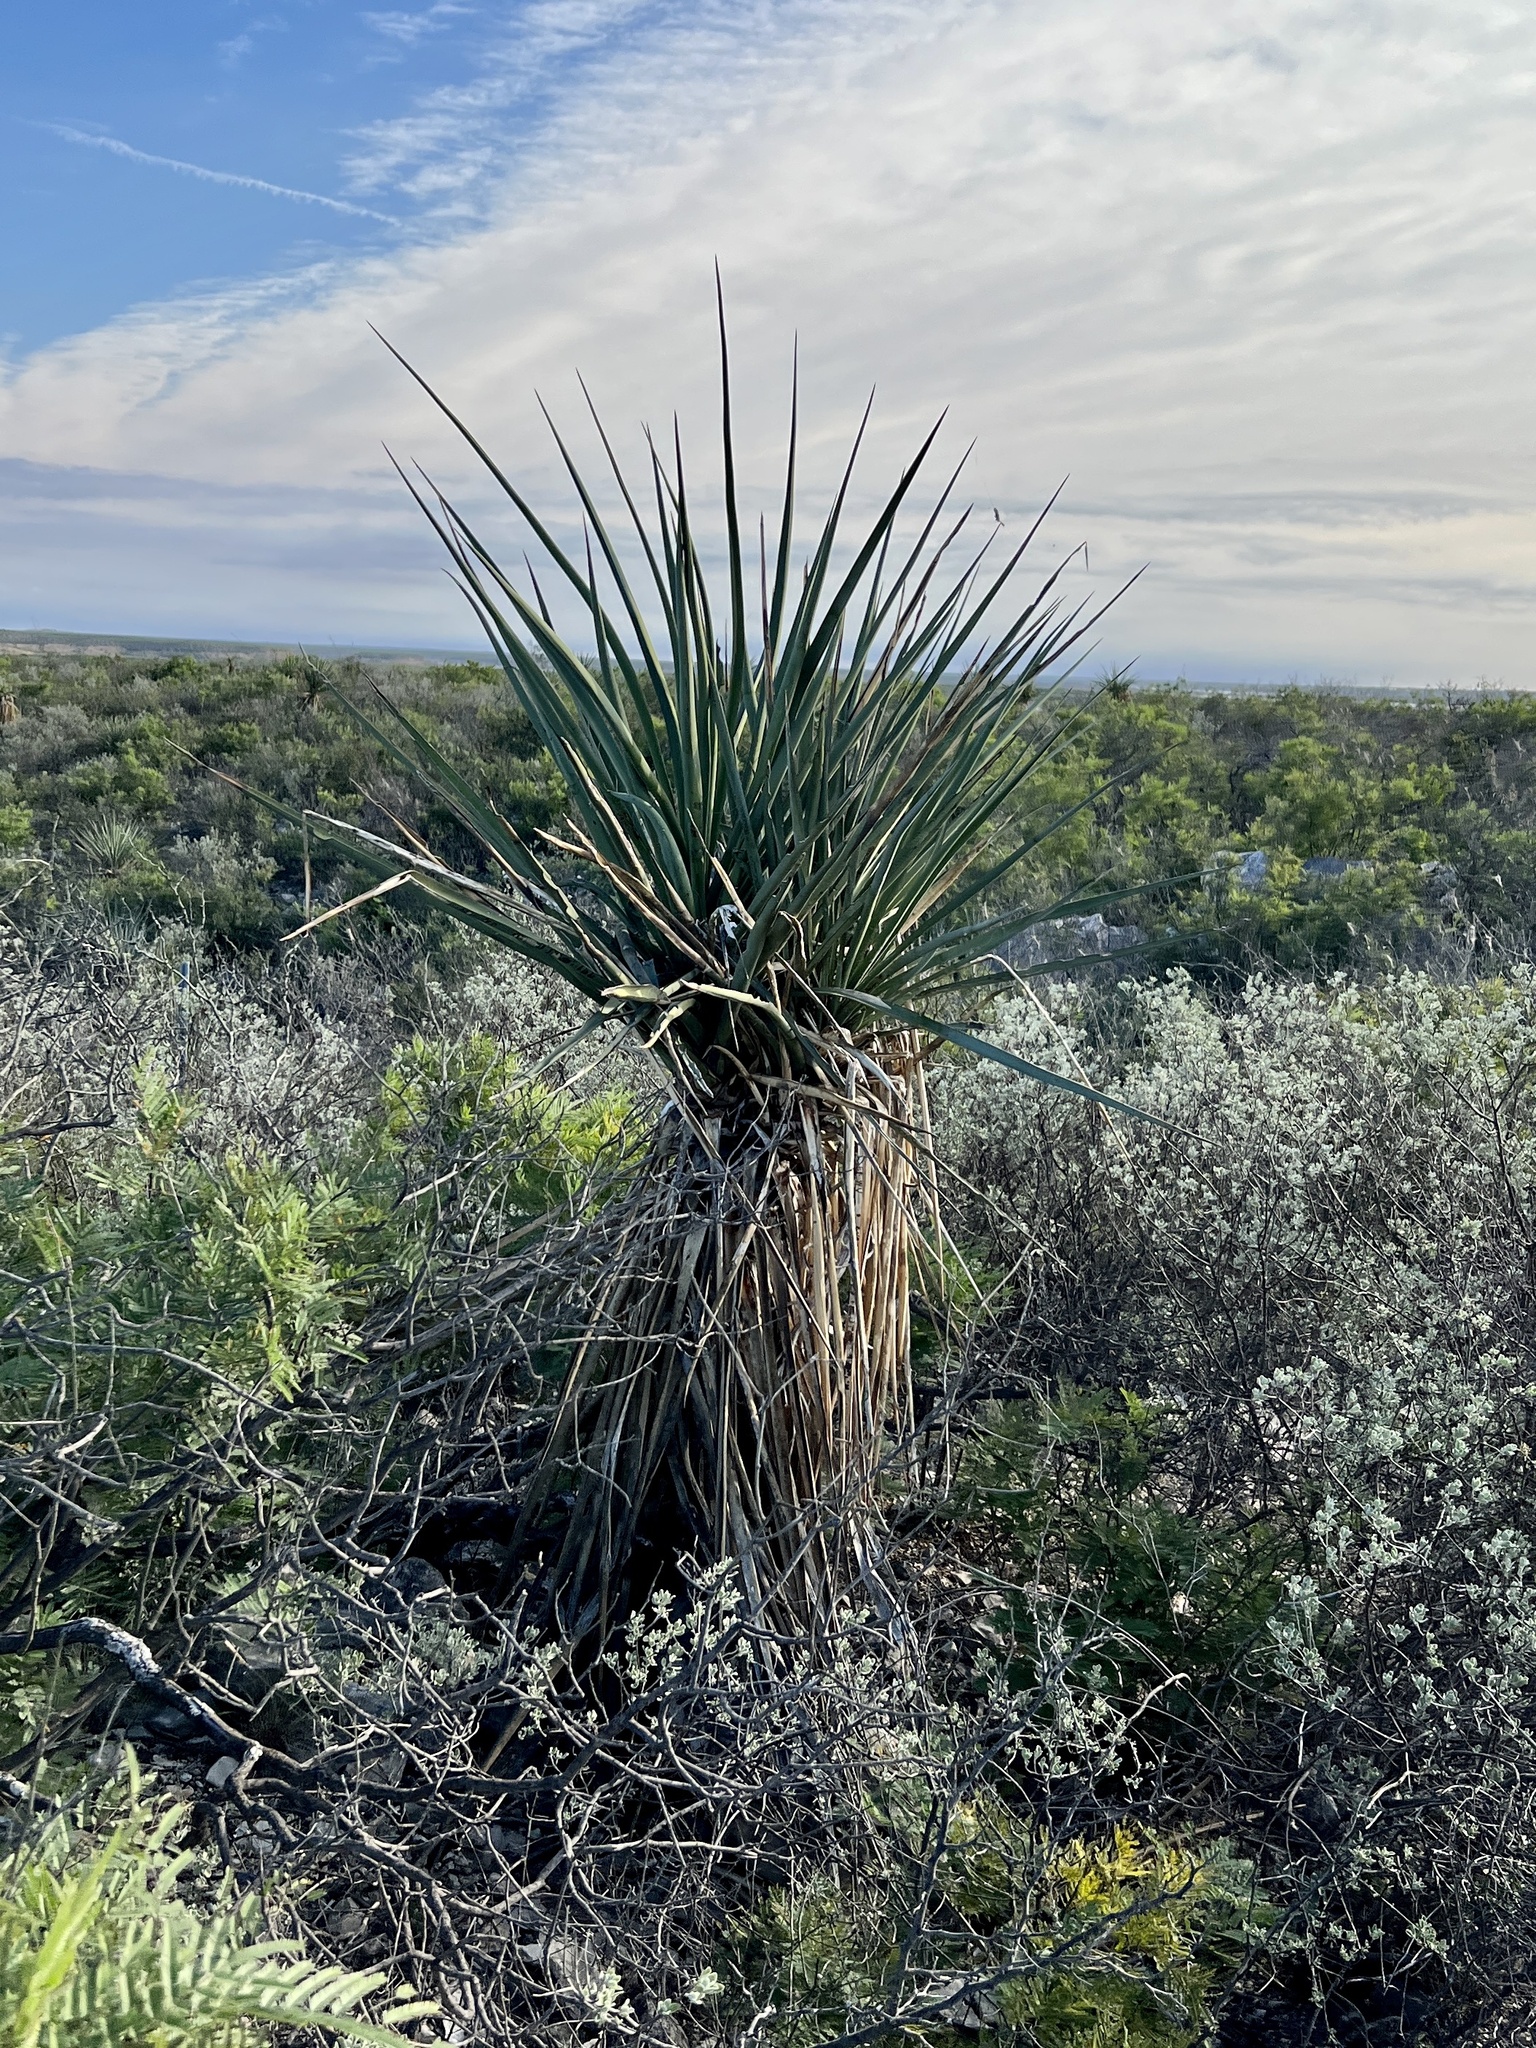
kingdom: Plantae
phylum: Tracheophyta
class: Liliopsida
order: Asparagales
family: Asparagaceae
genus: Yucca
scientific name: Yucca treculiana
